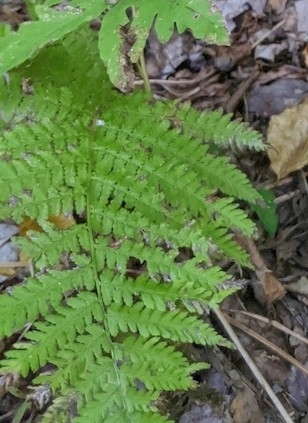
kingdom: Plantae
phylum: Tracheophyta
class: Polypodiopsida
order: Polypodiales
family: Athyriaceae
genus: Athyrium
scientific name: Athyrium angustum
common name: Northern lady fern
